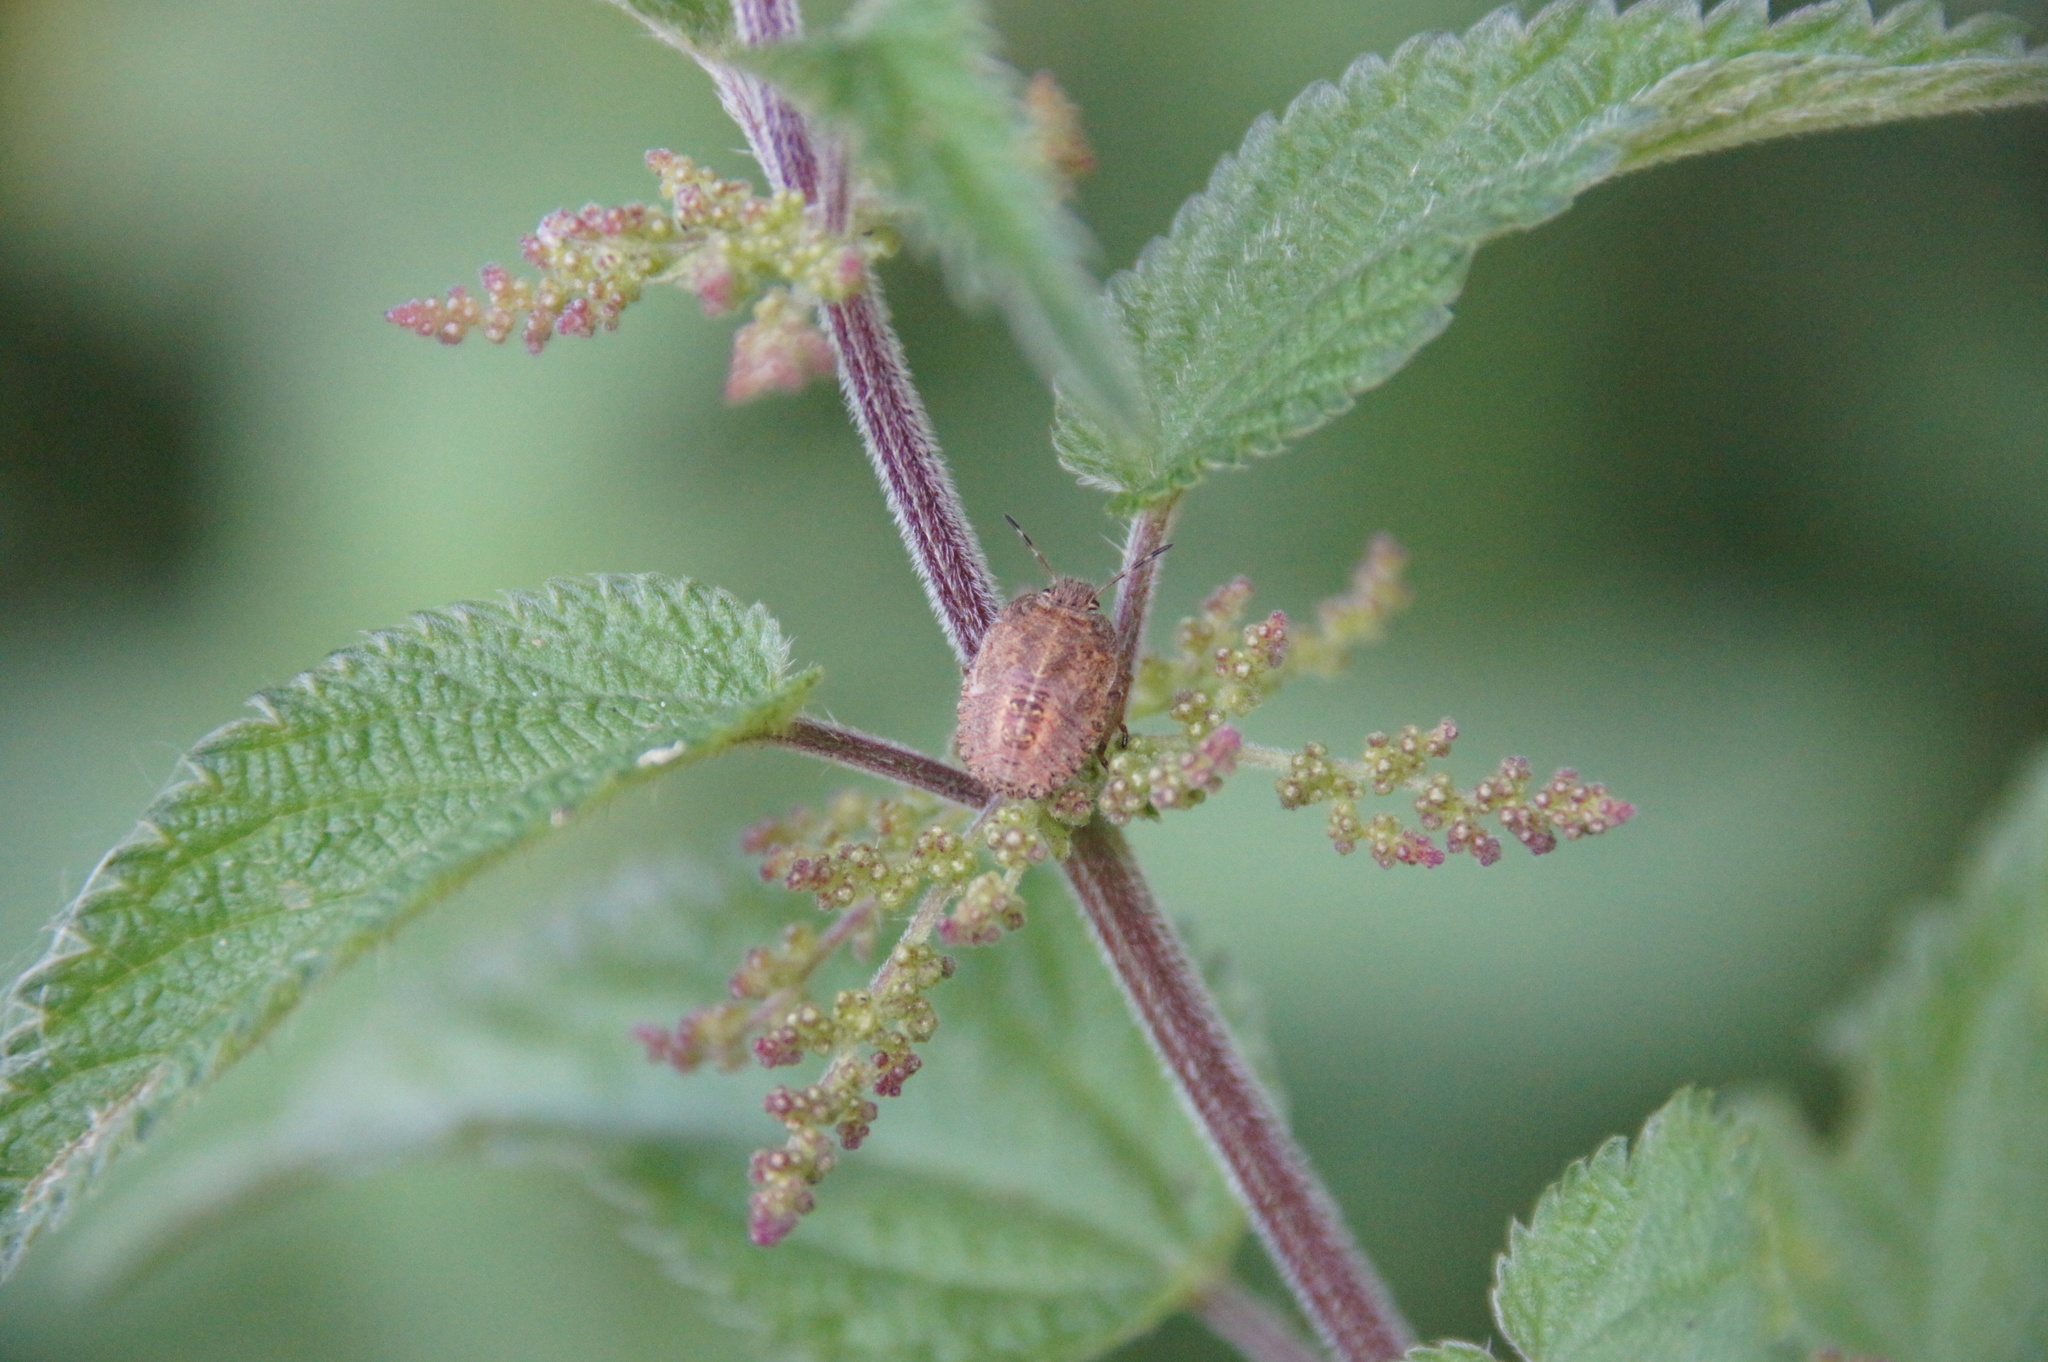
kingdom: Animalia
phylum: Arthropoda
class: Insecta
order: Hemiptera
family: Pentatomidae
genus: Dolycoris
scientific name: Dolycoris baccarum
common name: Sloe bug
